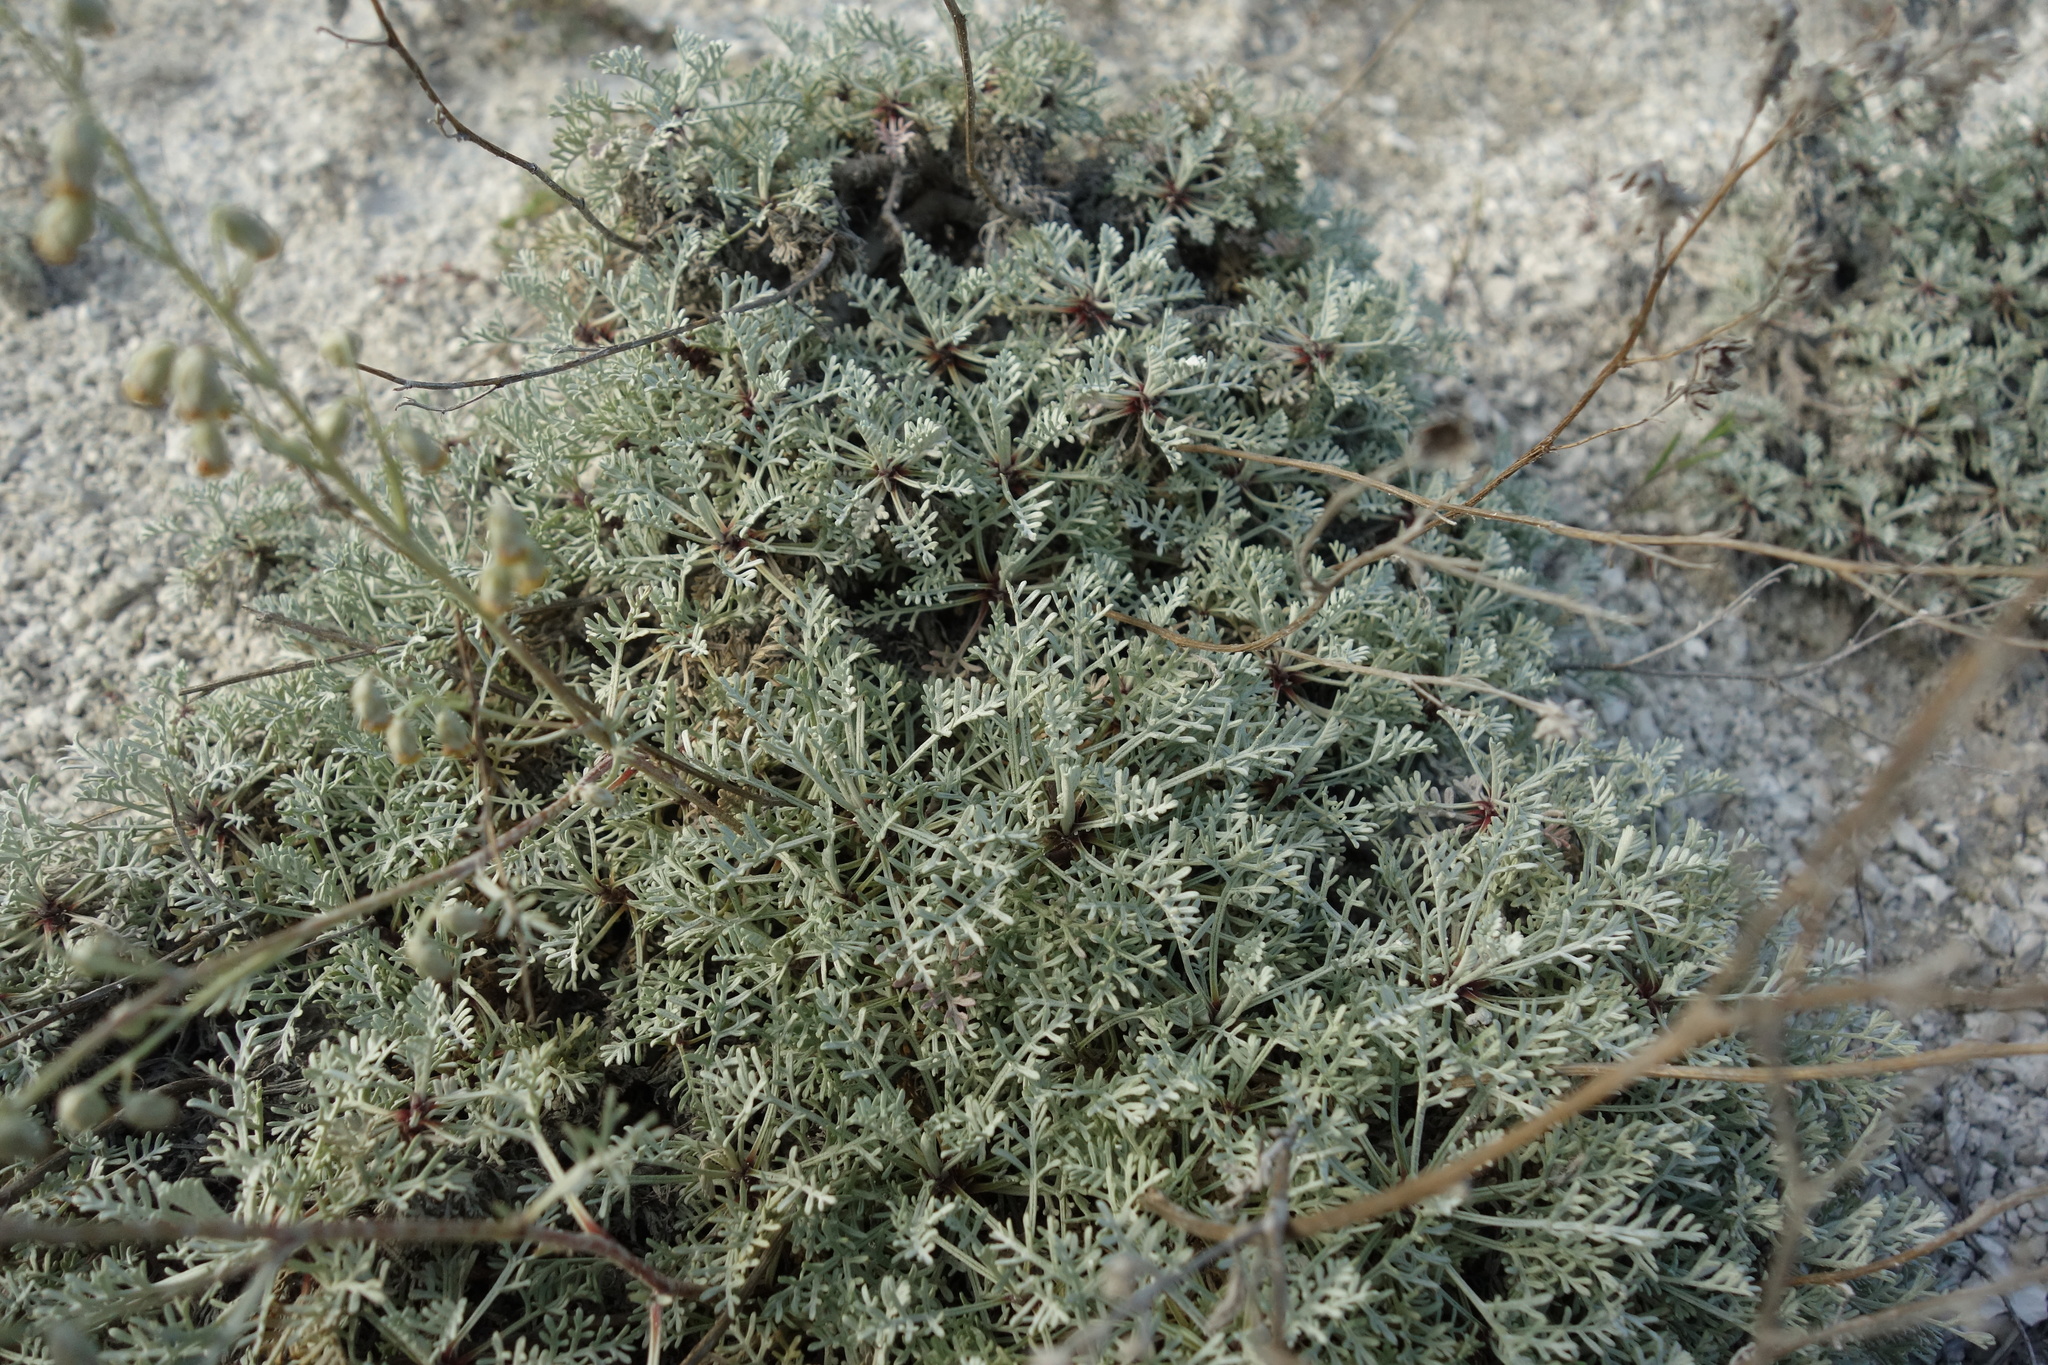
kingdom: Plantae
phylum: Tracheophyta
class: Magnoliopsida
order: Asterales
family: Asteraceae
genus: Artemisia
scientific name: Artemisia hololeuca
